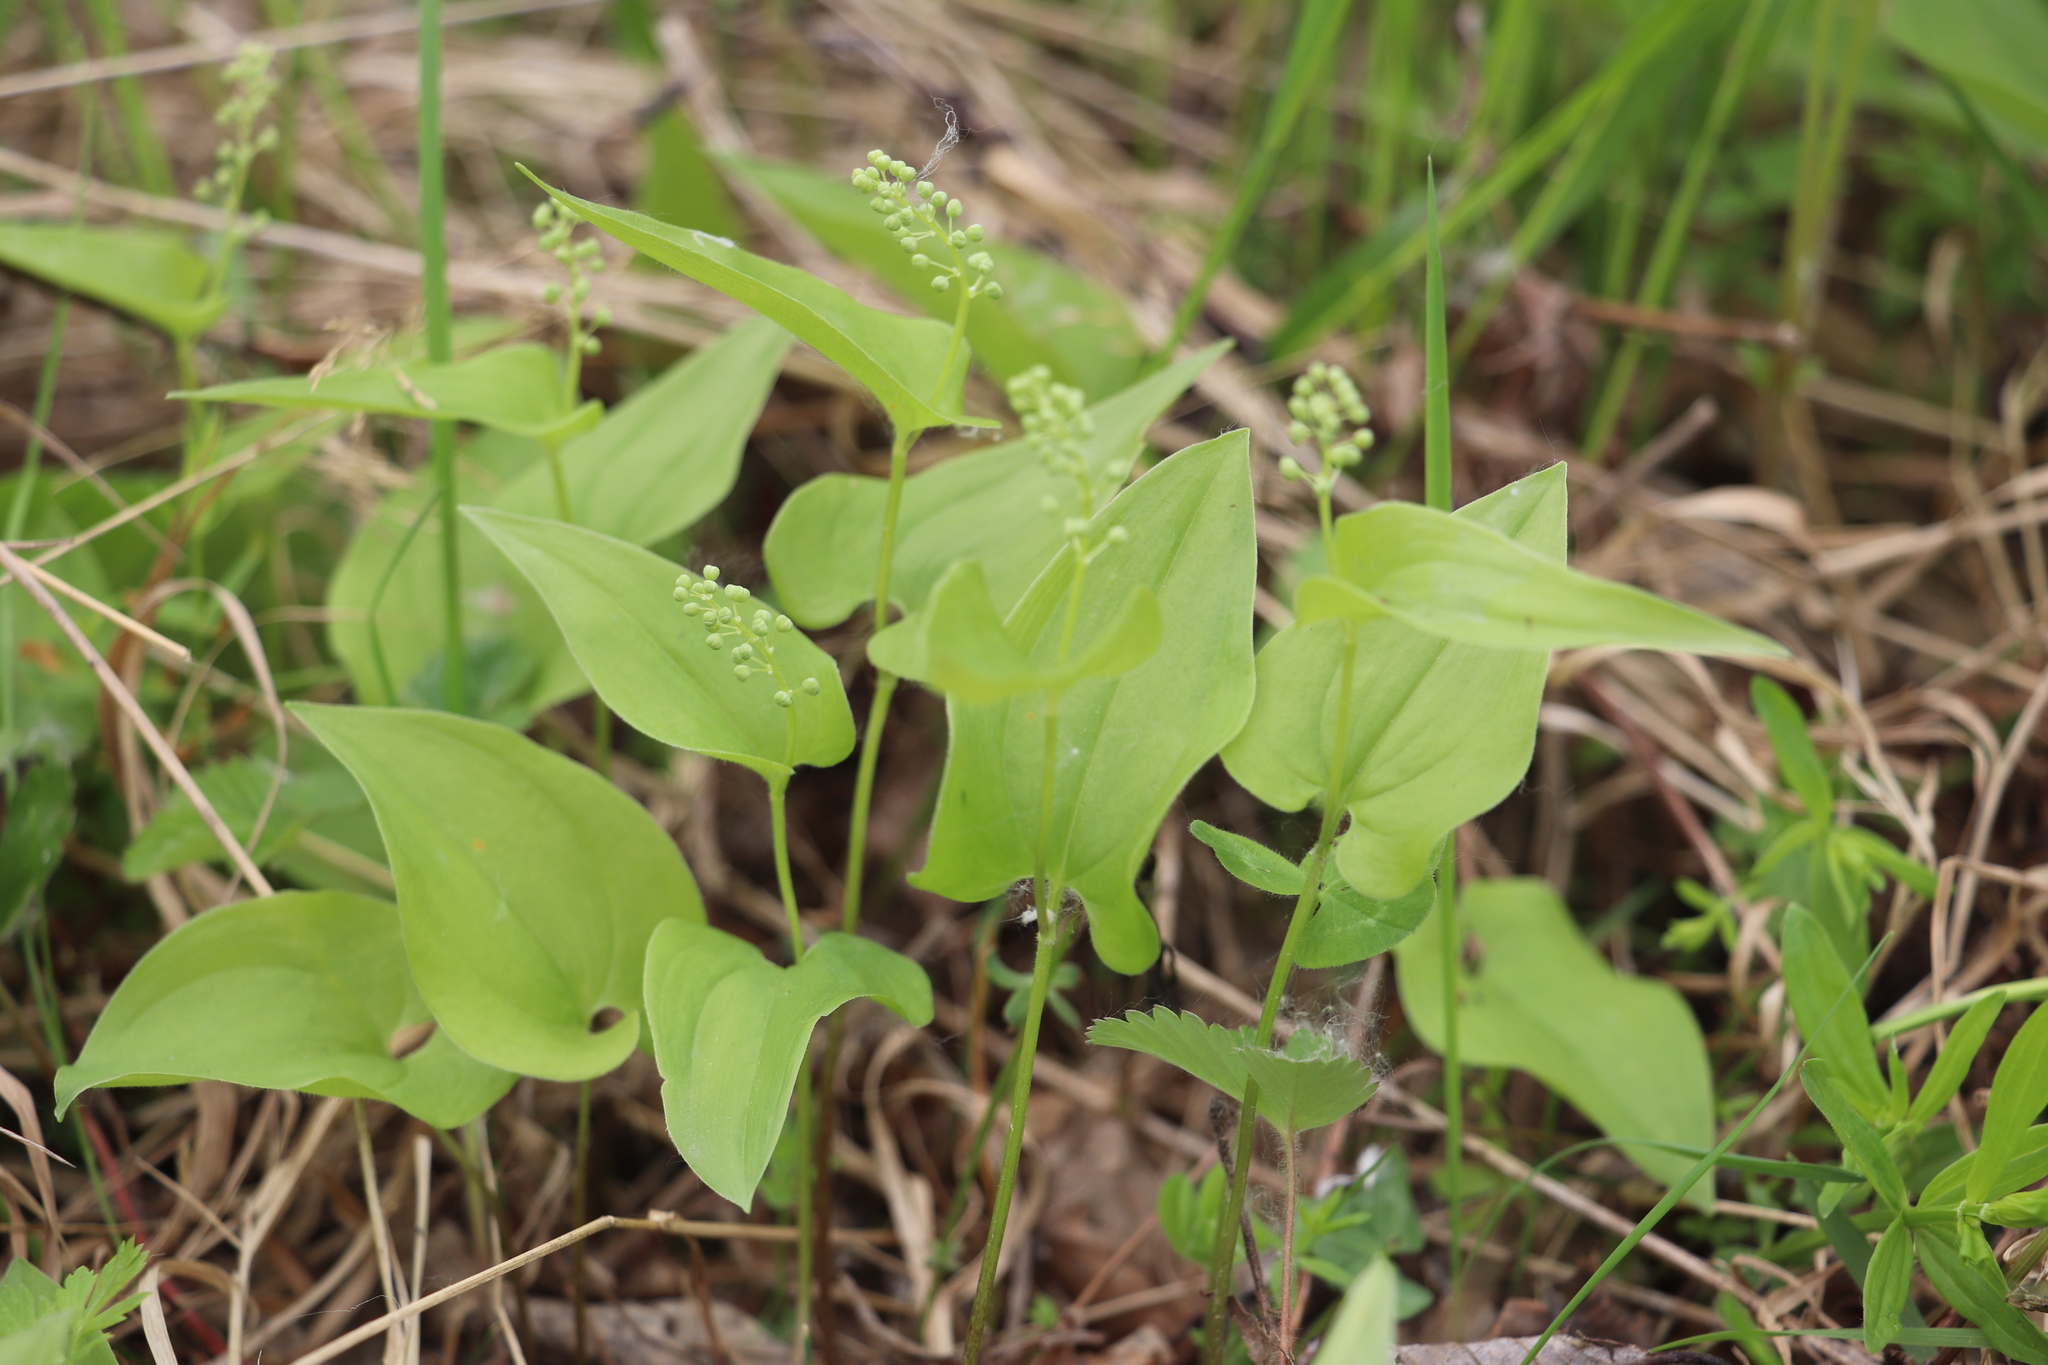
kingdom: Plantae
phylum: Tracheophyta
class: Liliopsida
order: Asparagales
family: Asparagaceae
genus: Maianthemum
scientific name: Maianthemum bifolium
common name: May lily
